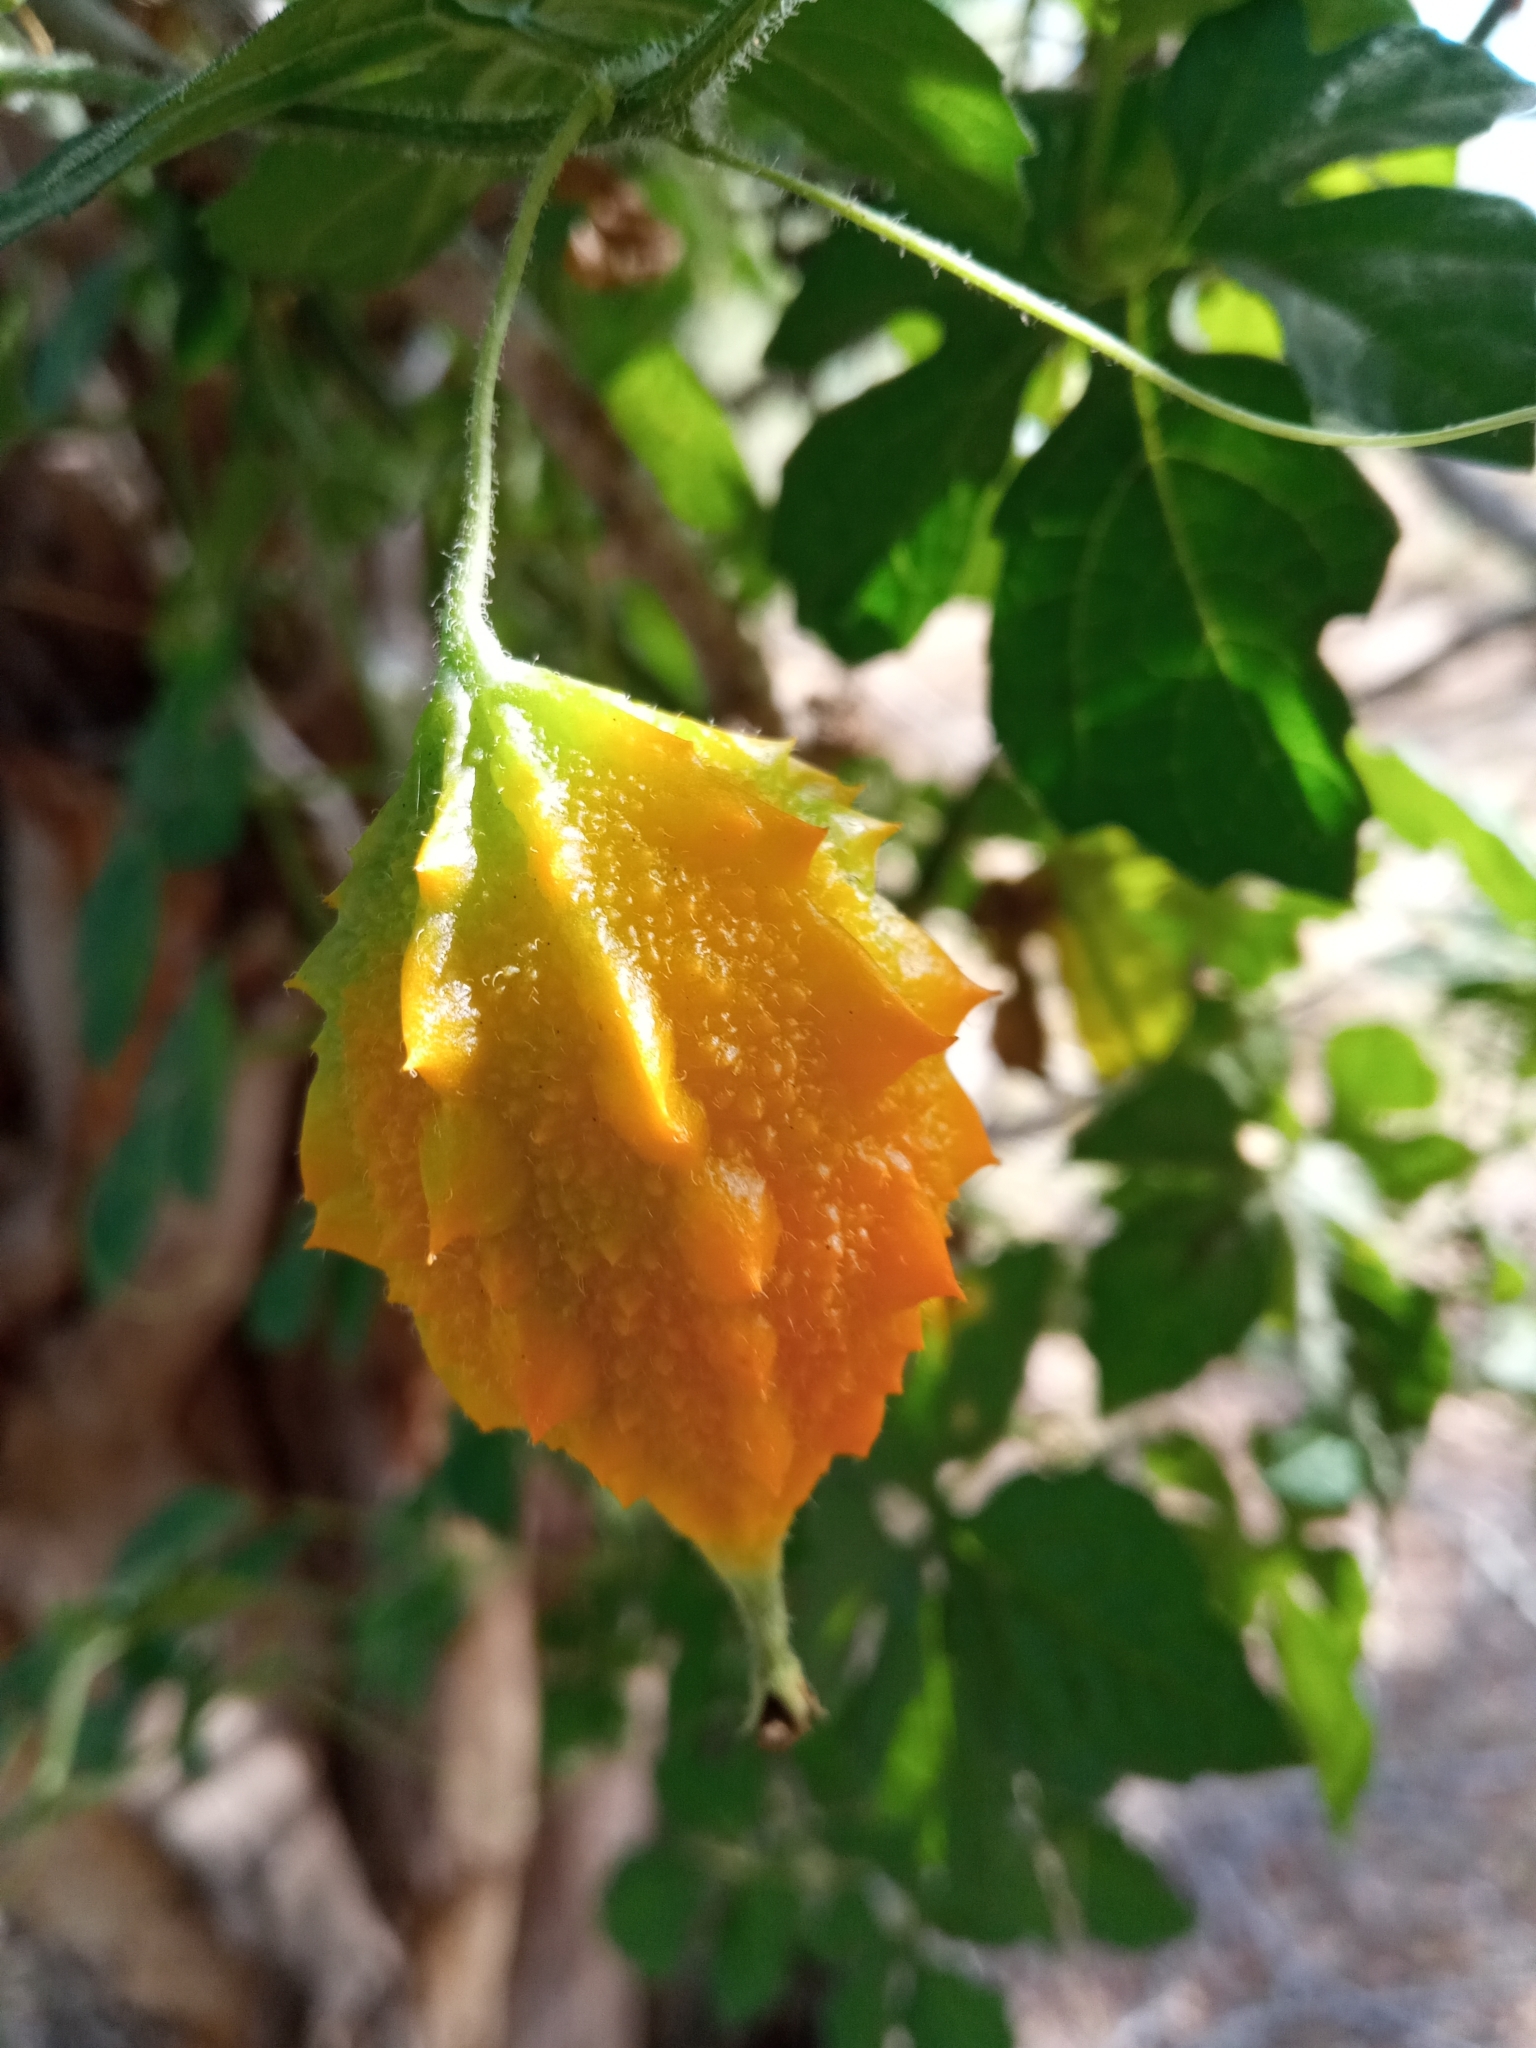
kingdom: Plantae
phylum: Tracheophyta
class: Magnoliopsida
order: Cucurbitales
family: Cucurbitaceae
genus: Momordica
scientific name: Momordica charantia
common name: Balsampear
